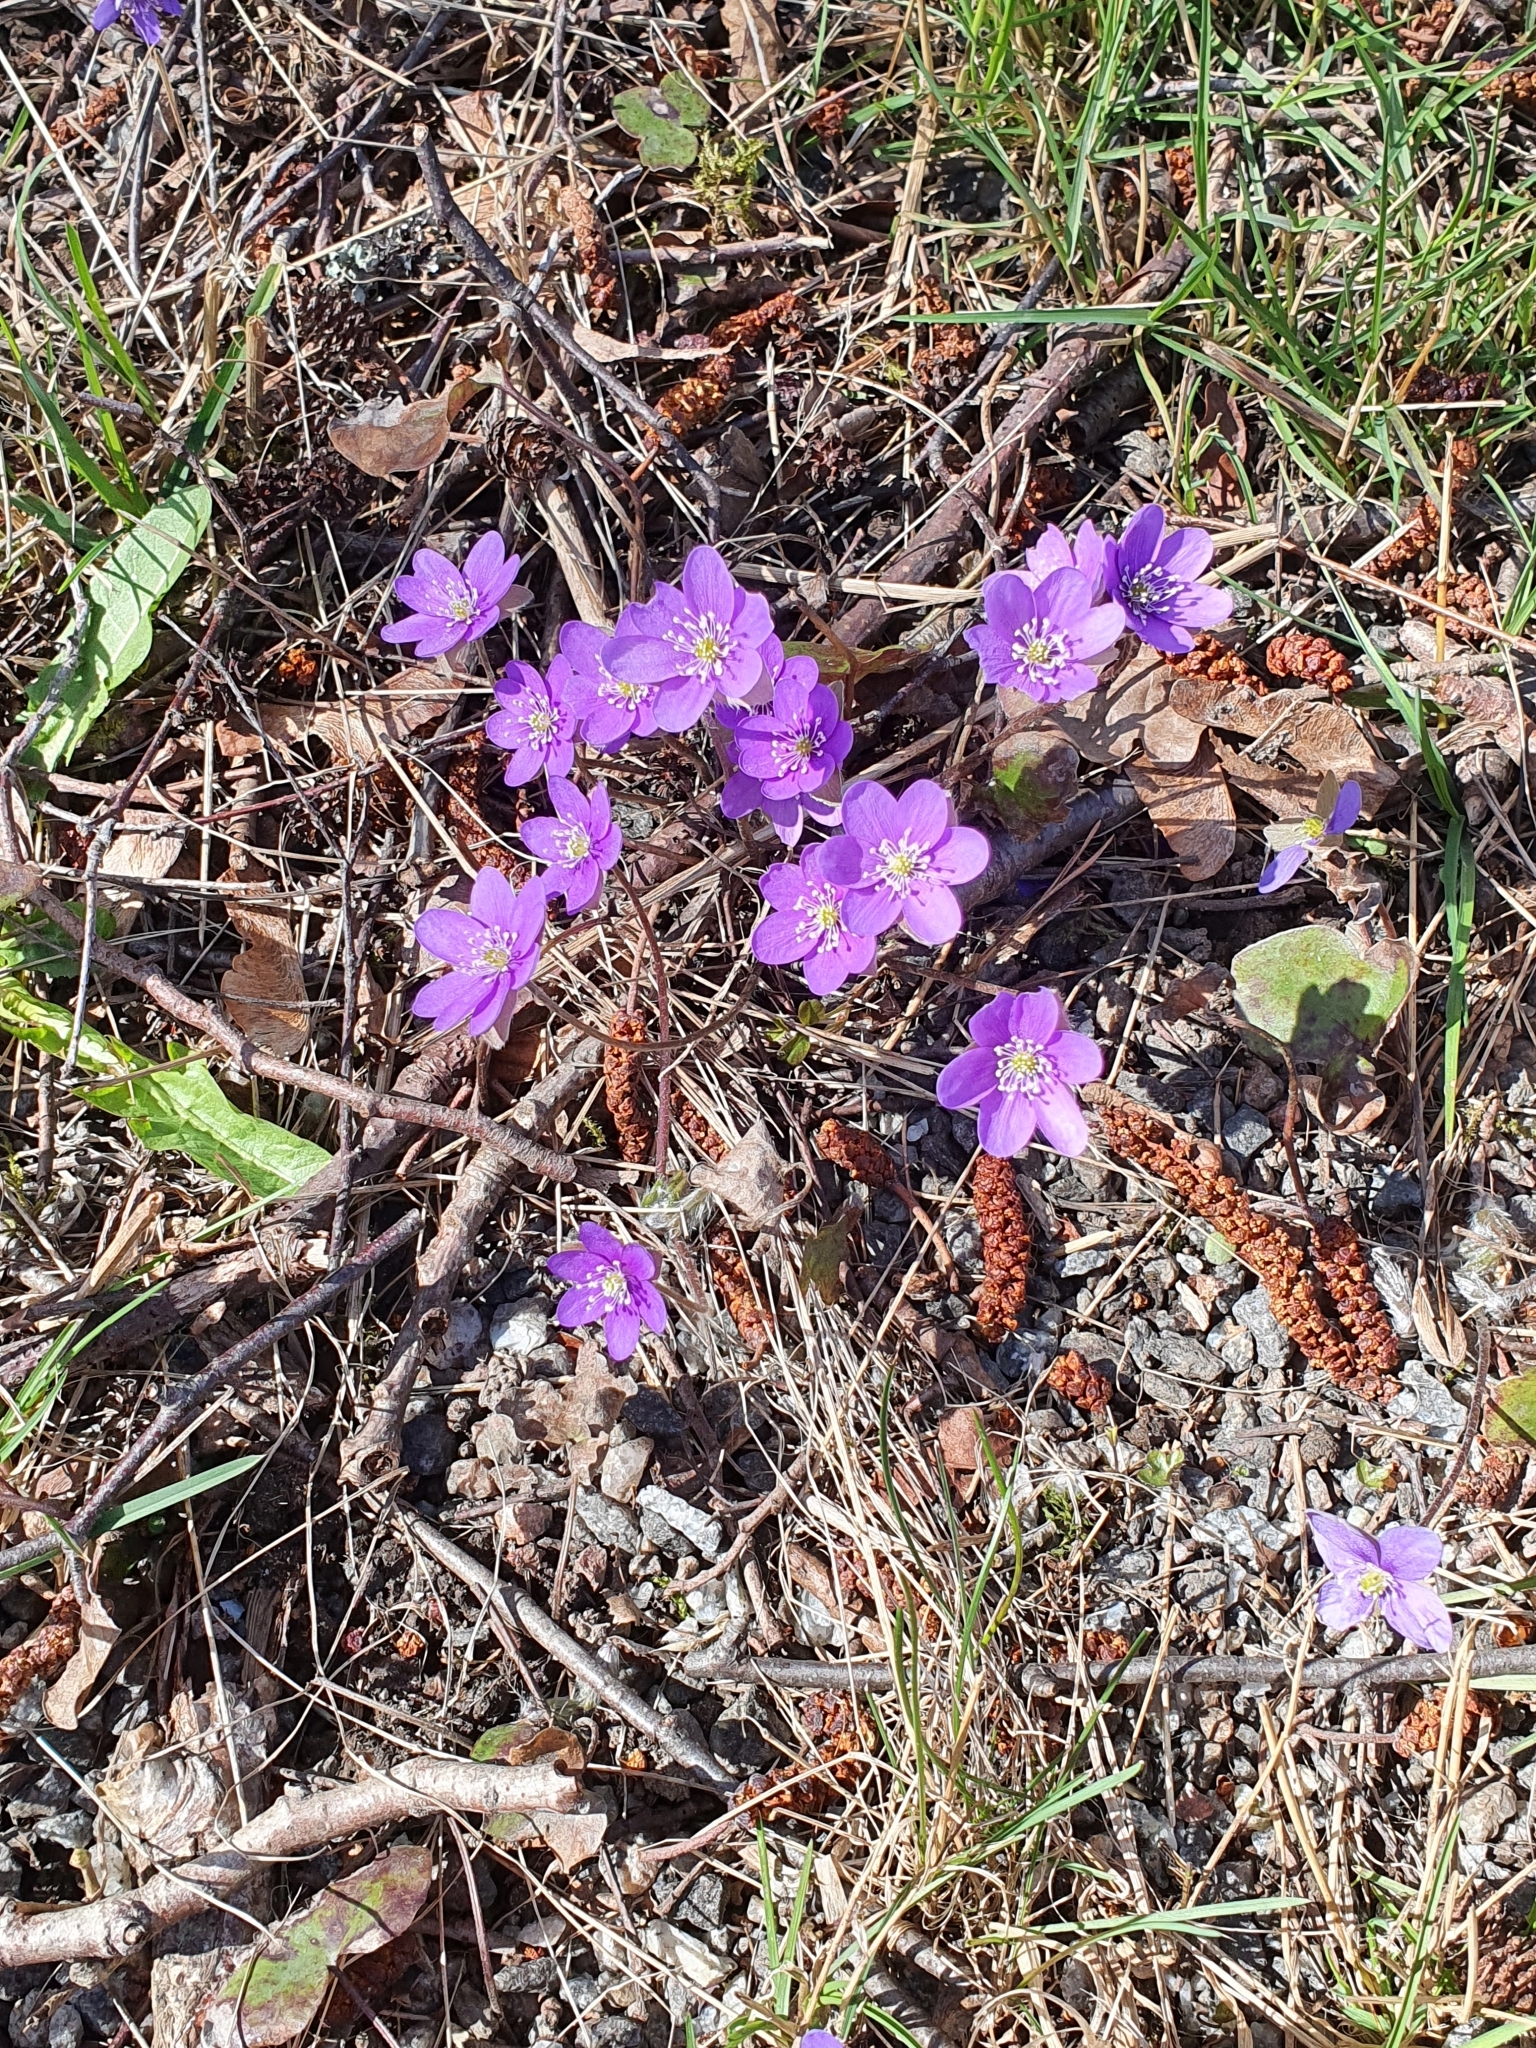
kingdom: Plantae
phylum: Tracheophyta
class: Magnoliopsida
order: Ranunculales
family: Ranunculaceae
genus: Hepatica
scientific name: Hepatica nobilis
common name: Liverleaf
